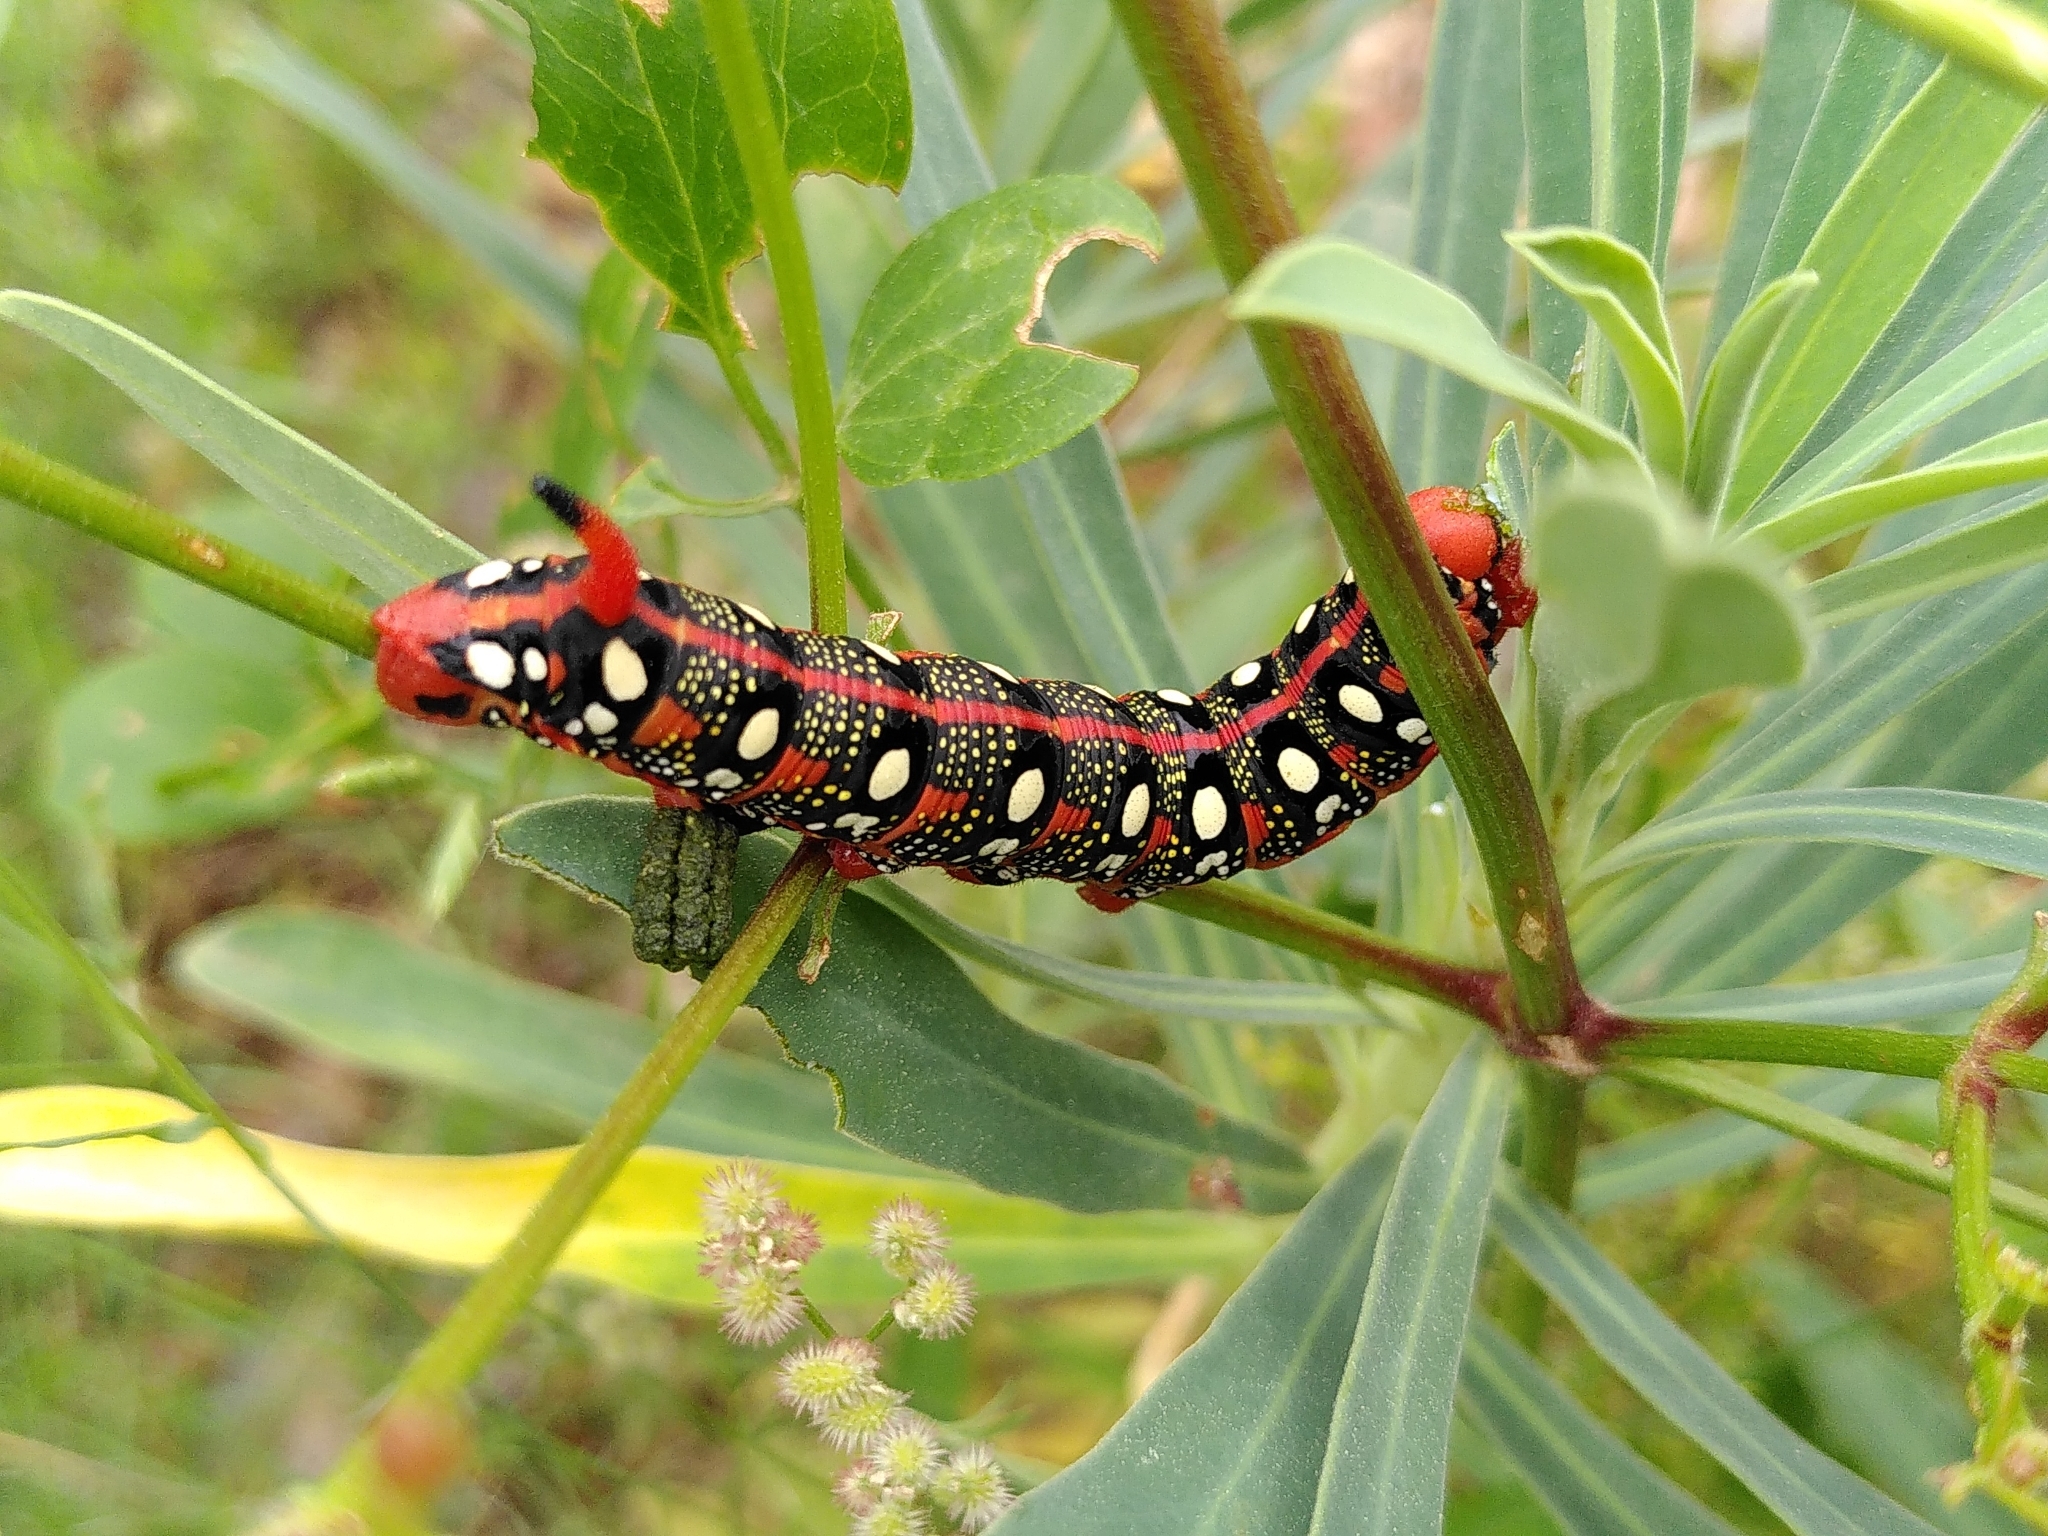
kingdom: Animalia
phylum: Arthropoda
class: Insecta
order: Lepidoptera
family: Sphingidae
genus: Hyles
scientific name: Hyles euphorbiae
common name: Spurge hawk-moth
